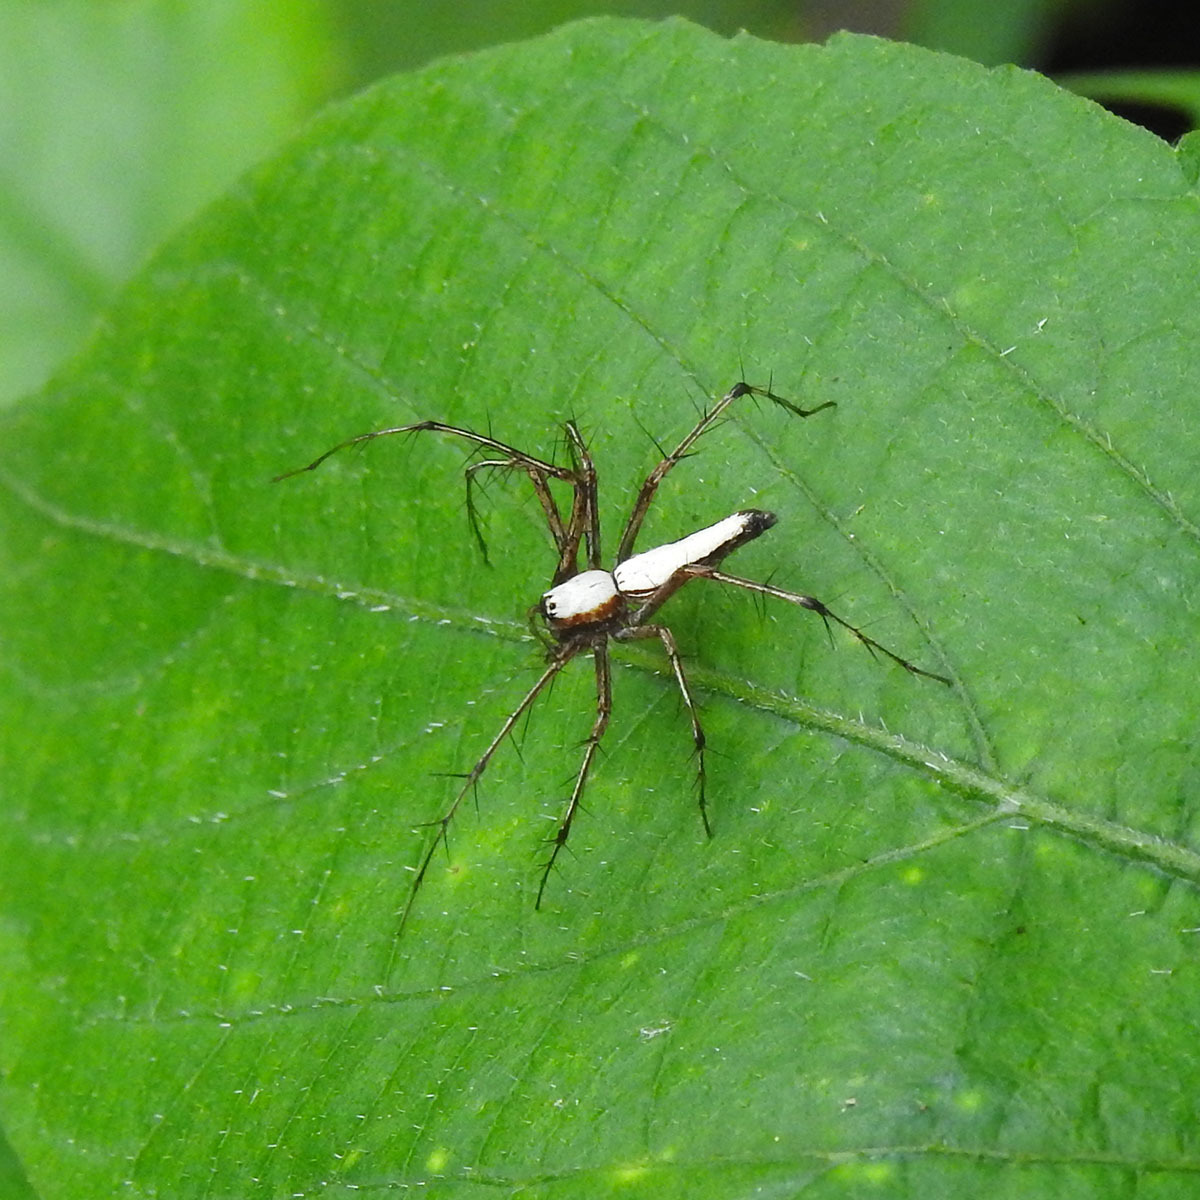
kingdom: Animalia
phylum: Arthropoda
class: Arachnida
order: Araneae
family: Oxyopidae
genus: Oxyopes
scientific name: Oxyopes shweta
